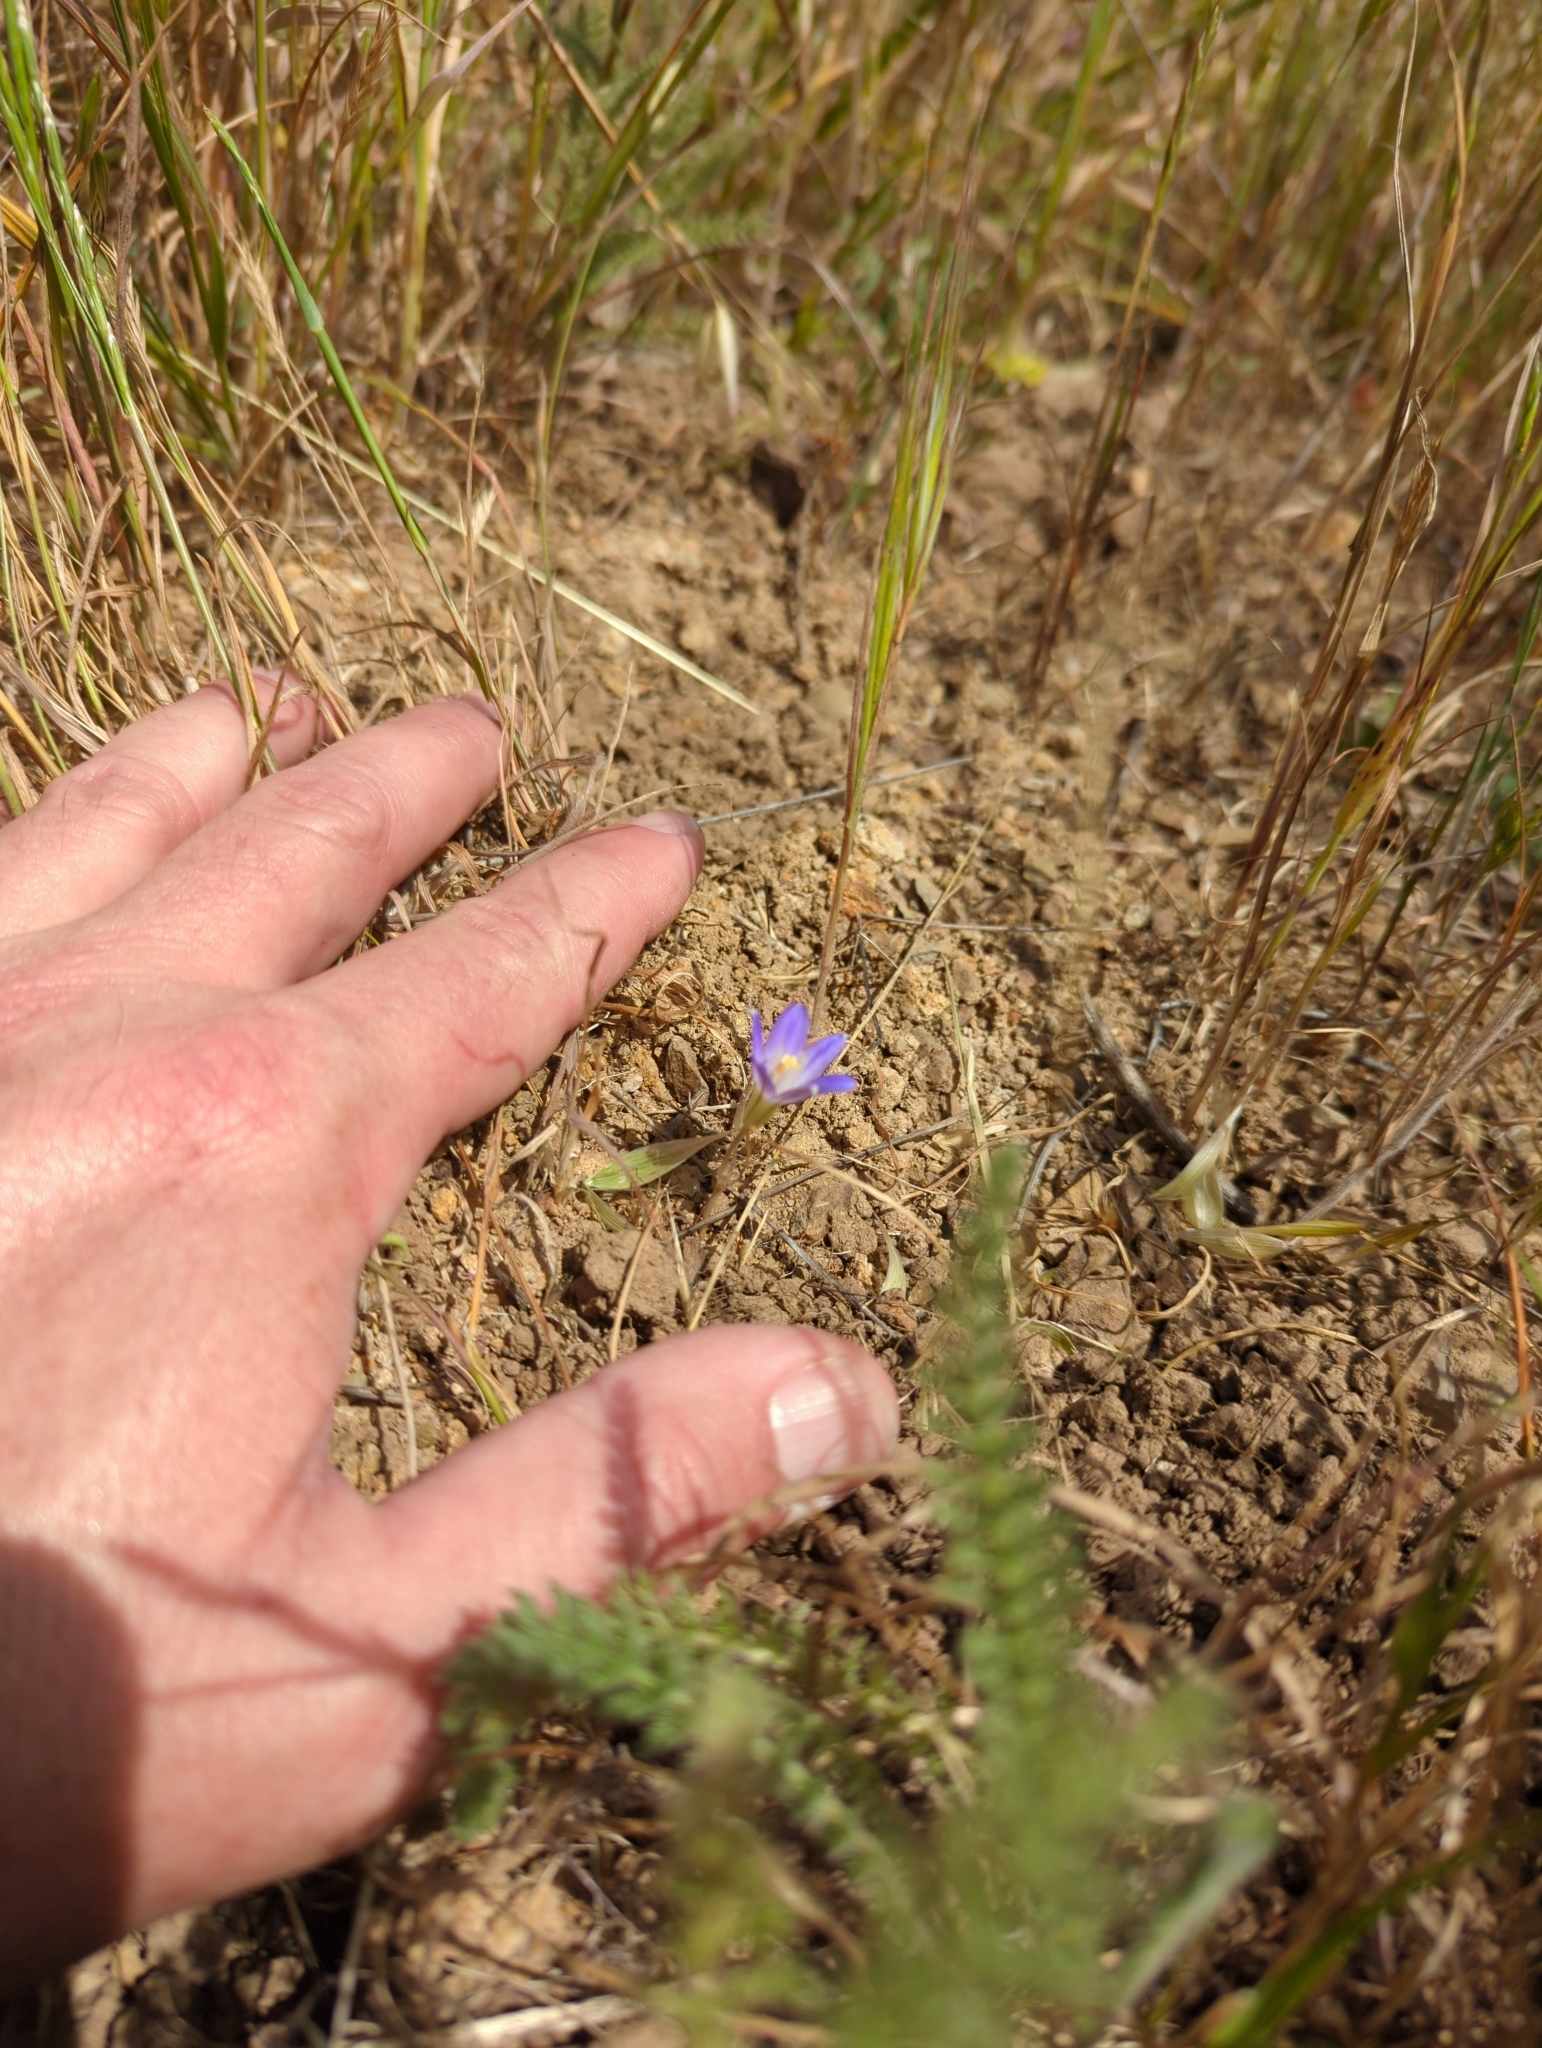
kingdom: Plantae
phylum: Tracheophyta
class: Liliopsida
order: Asparagales
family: Asparagaceae
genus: Brodiaea
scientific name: Brodiaea terrestris
